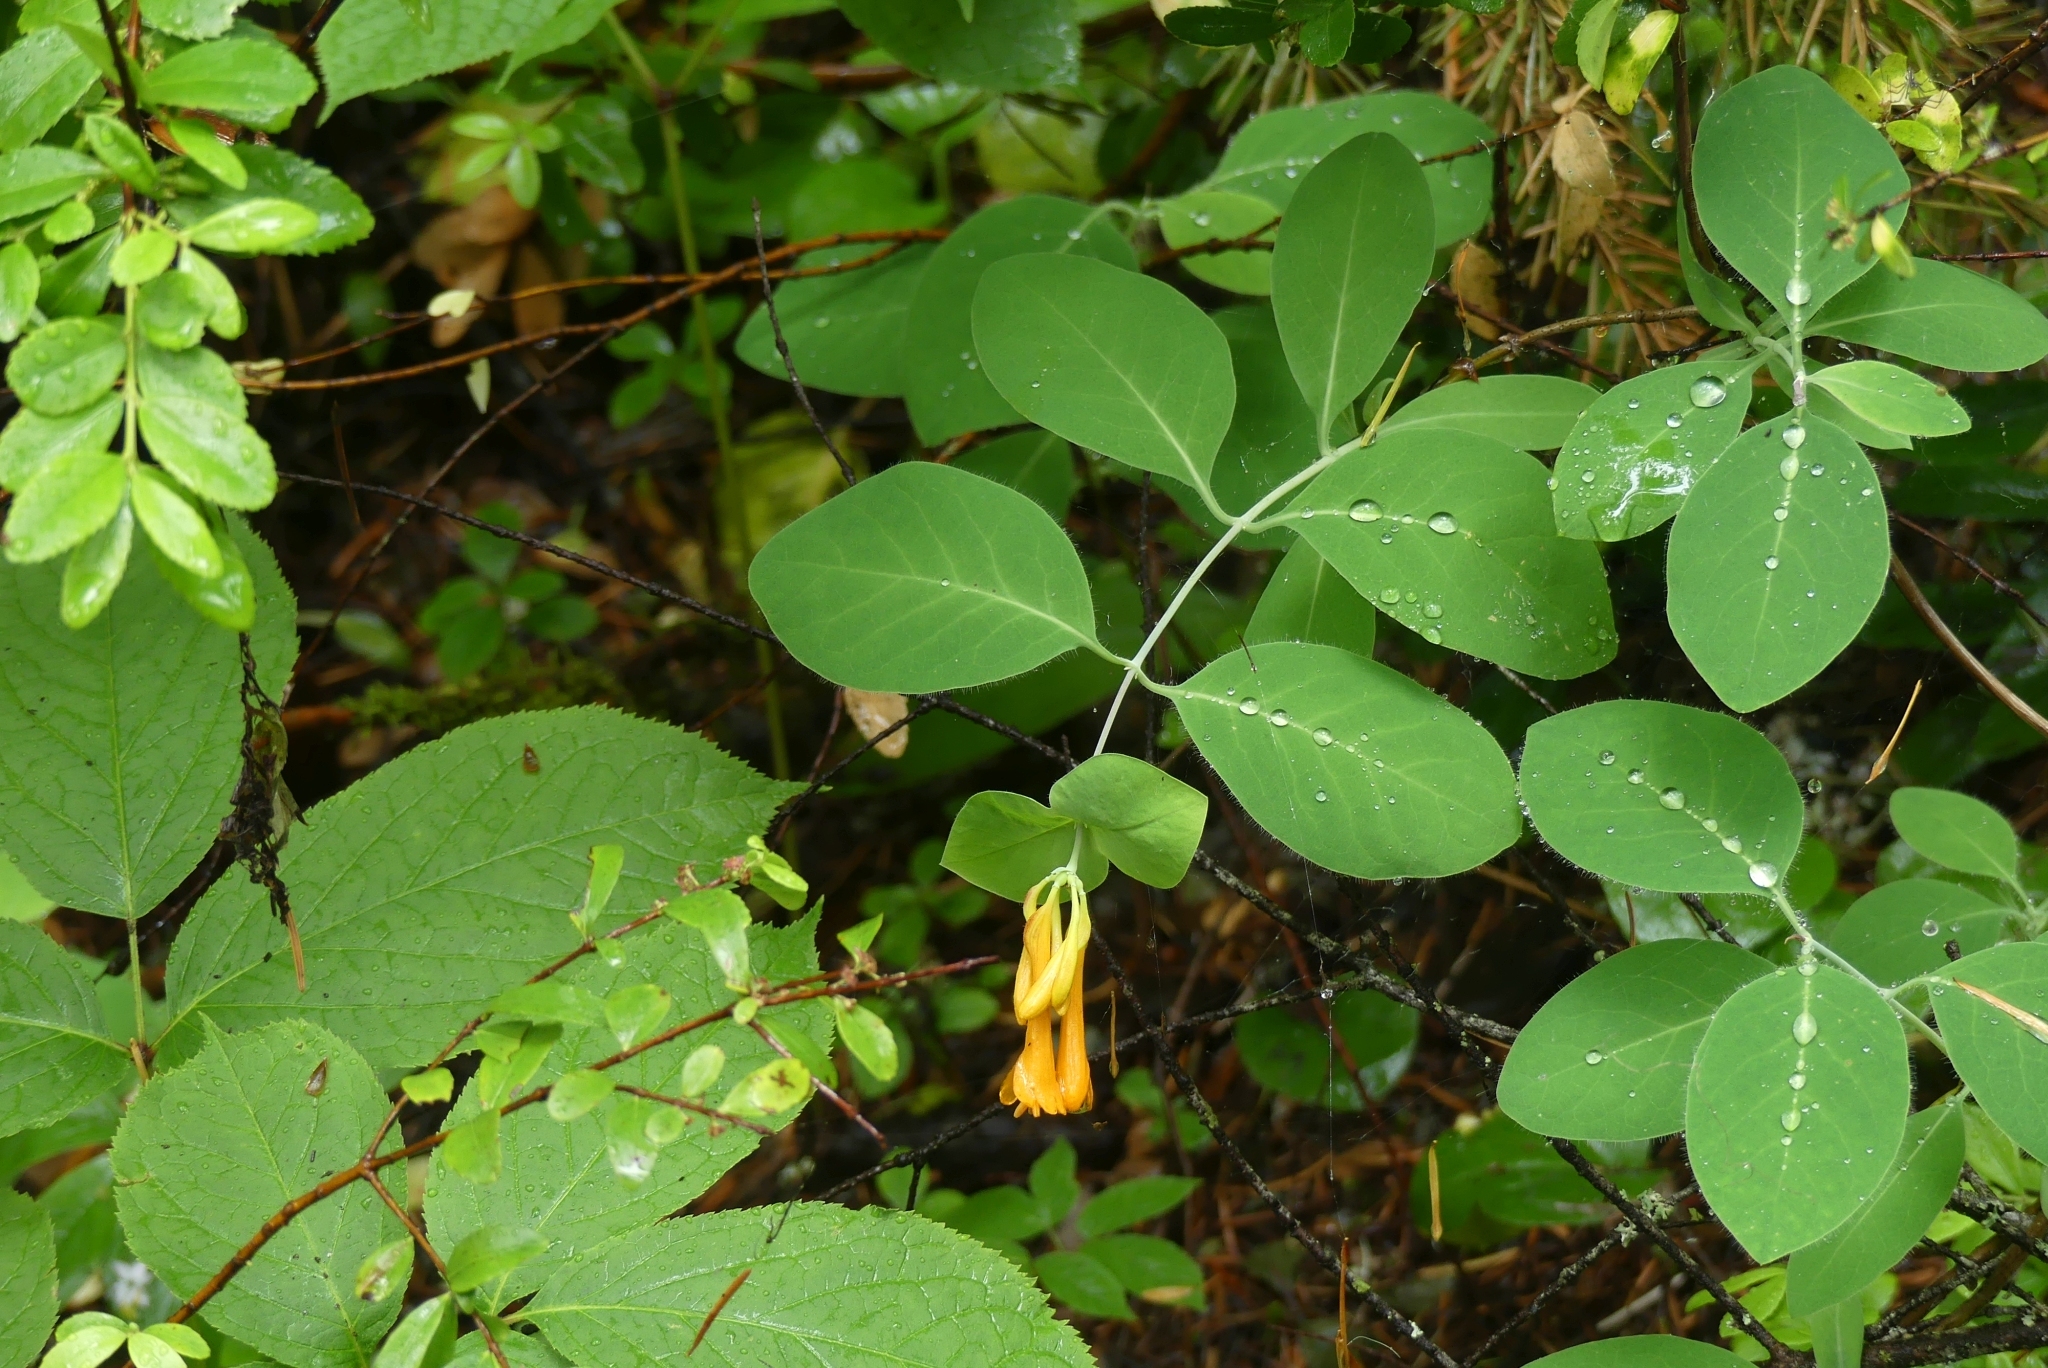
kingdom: Plantae
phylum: Tracheophyta
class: Magnoliopsida
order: Dipsacales
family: Caprifoliaceae
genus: Lonicera
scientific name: Lonicera ciliosa
